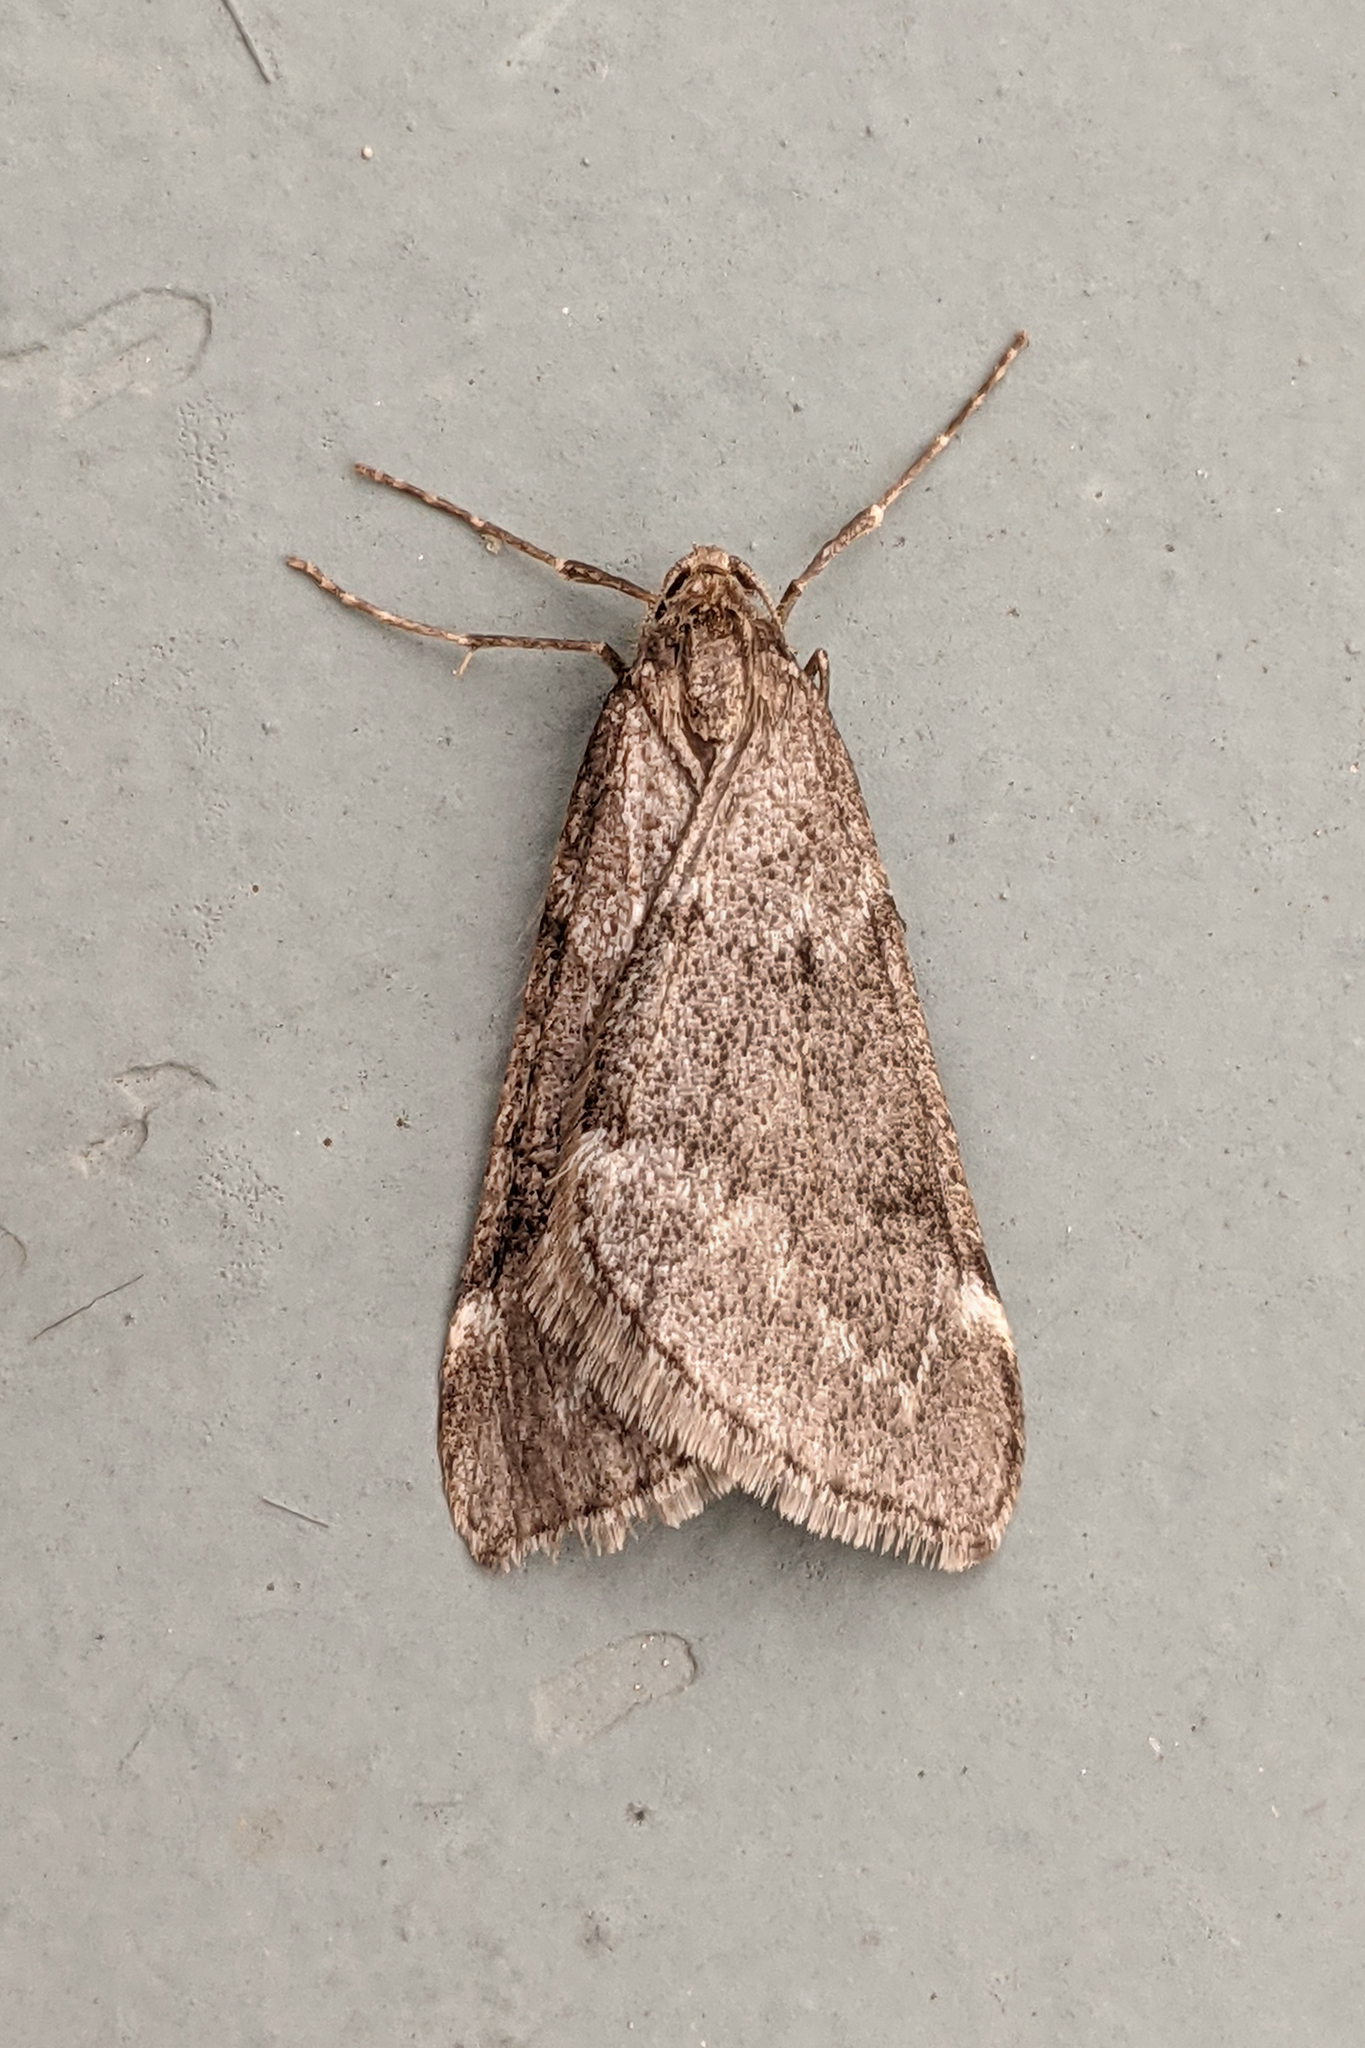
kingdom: Animalia
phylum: Arthropoda
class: Insecta
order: Lepidoptera
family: Geometridae
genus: Alsophila
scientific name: Alsophila pometaria
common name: Fall cankerworm
